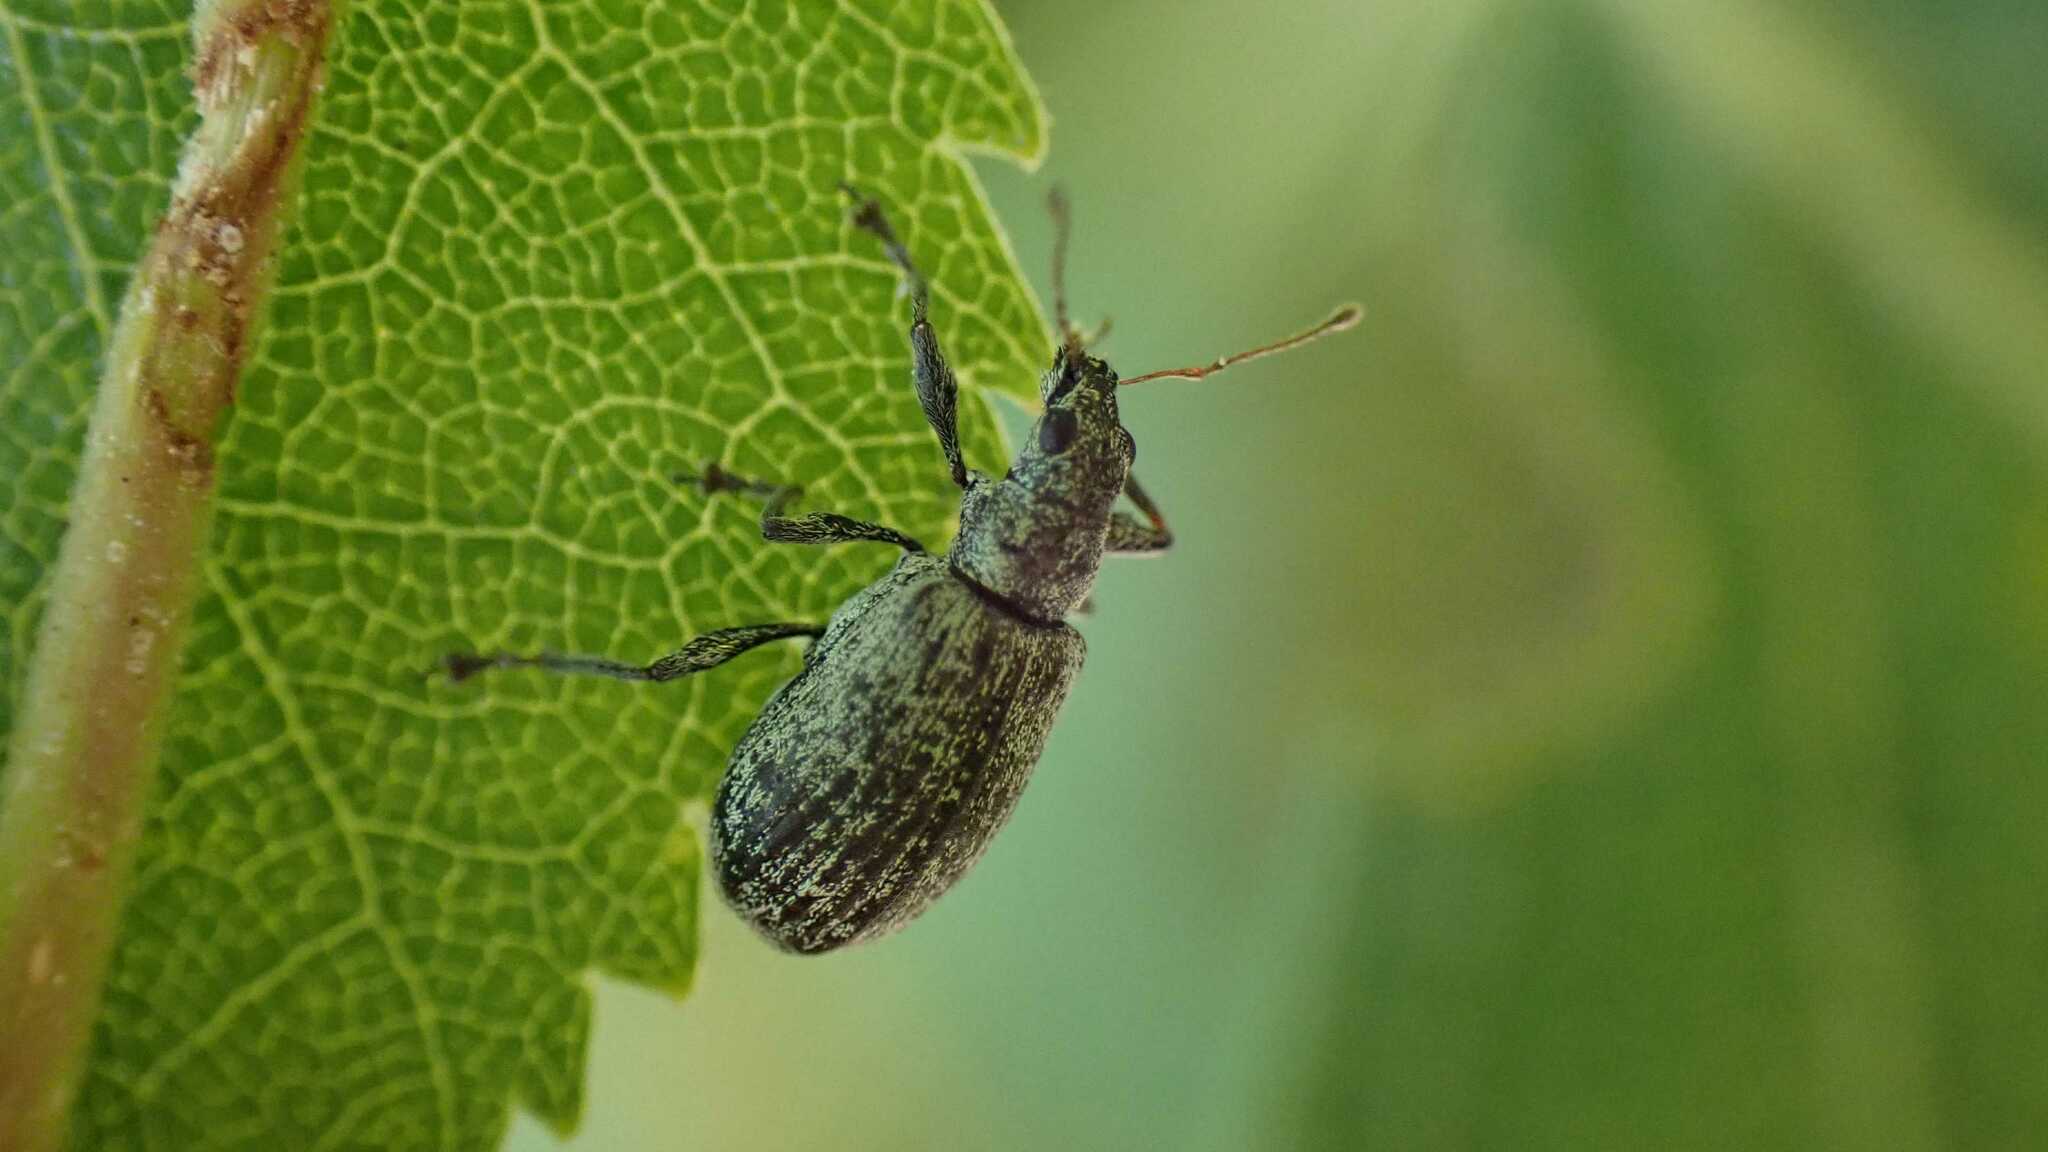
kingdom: Animalia
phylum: Arthropoda
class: Insecta
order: Coleoptera
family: Curculionidae
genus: Polydrusus
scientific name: Polydrusus cervinus
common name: Weevil
